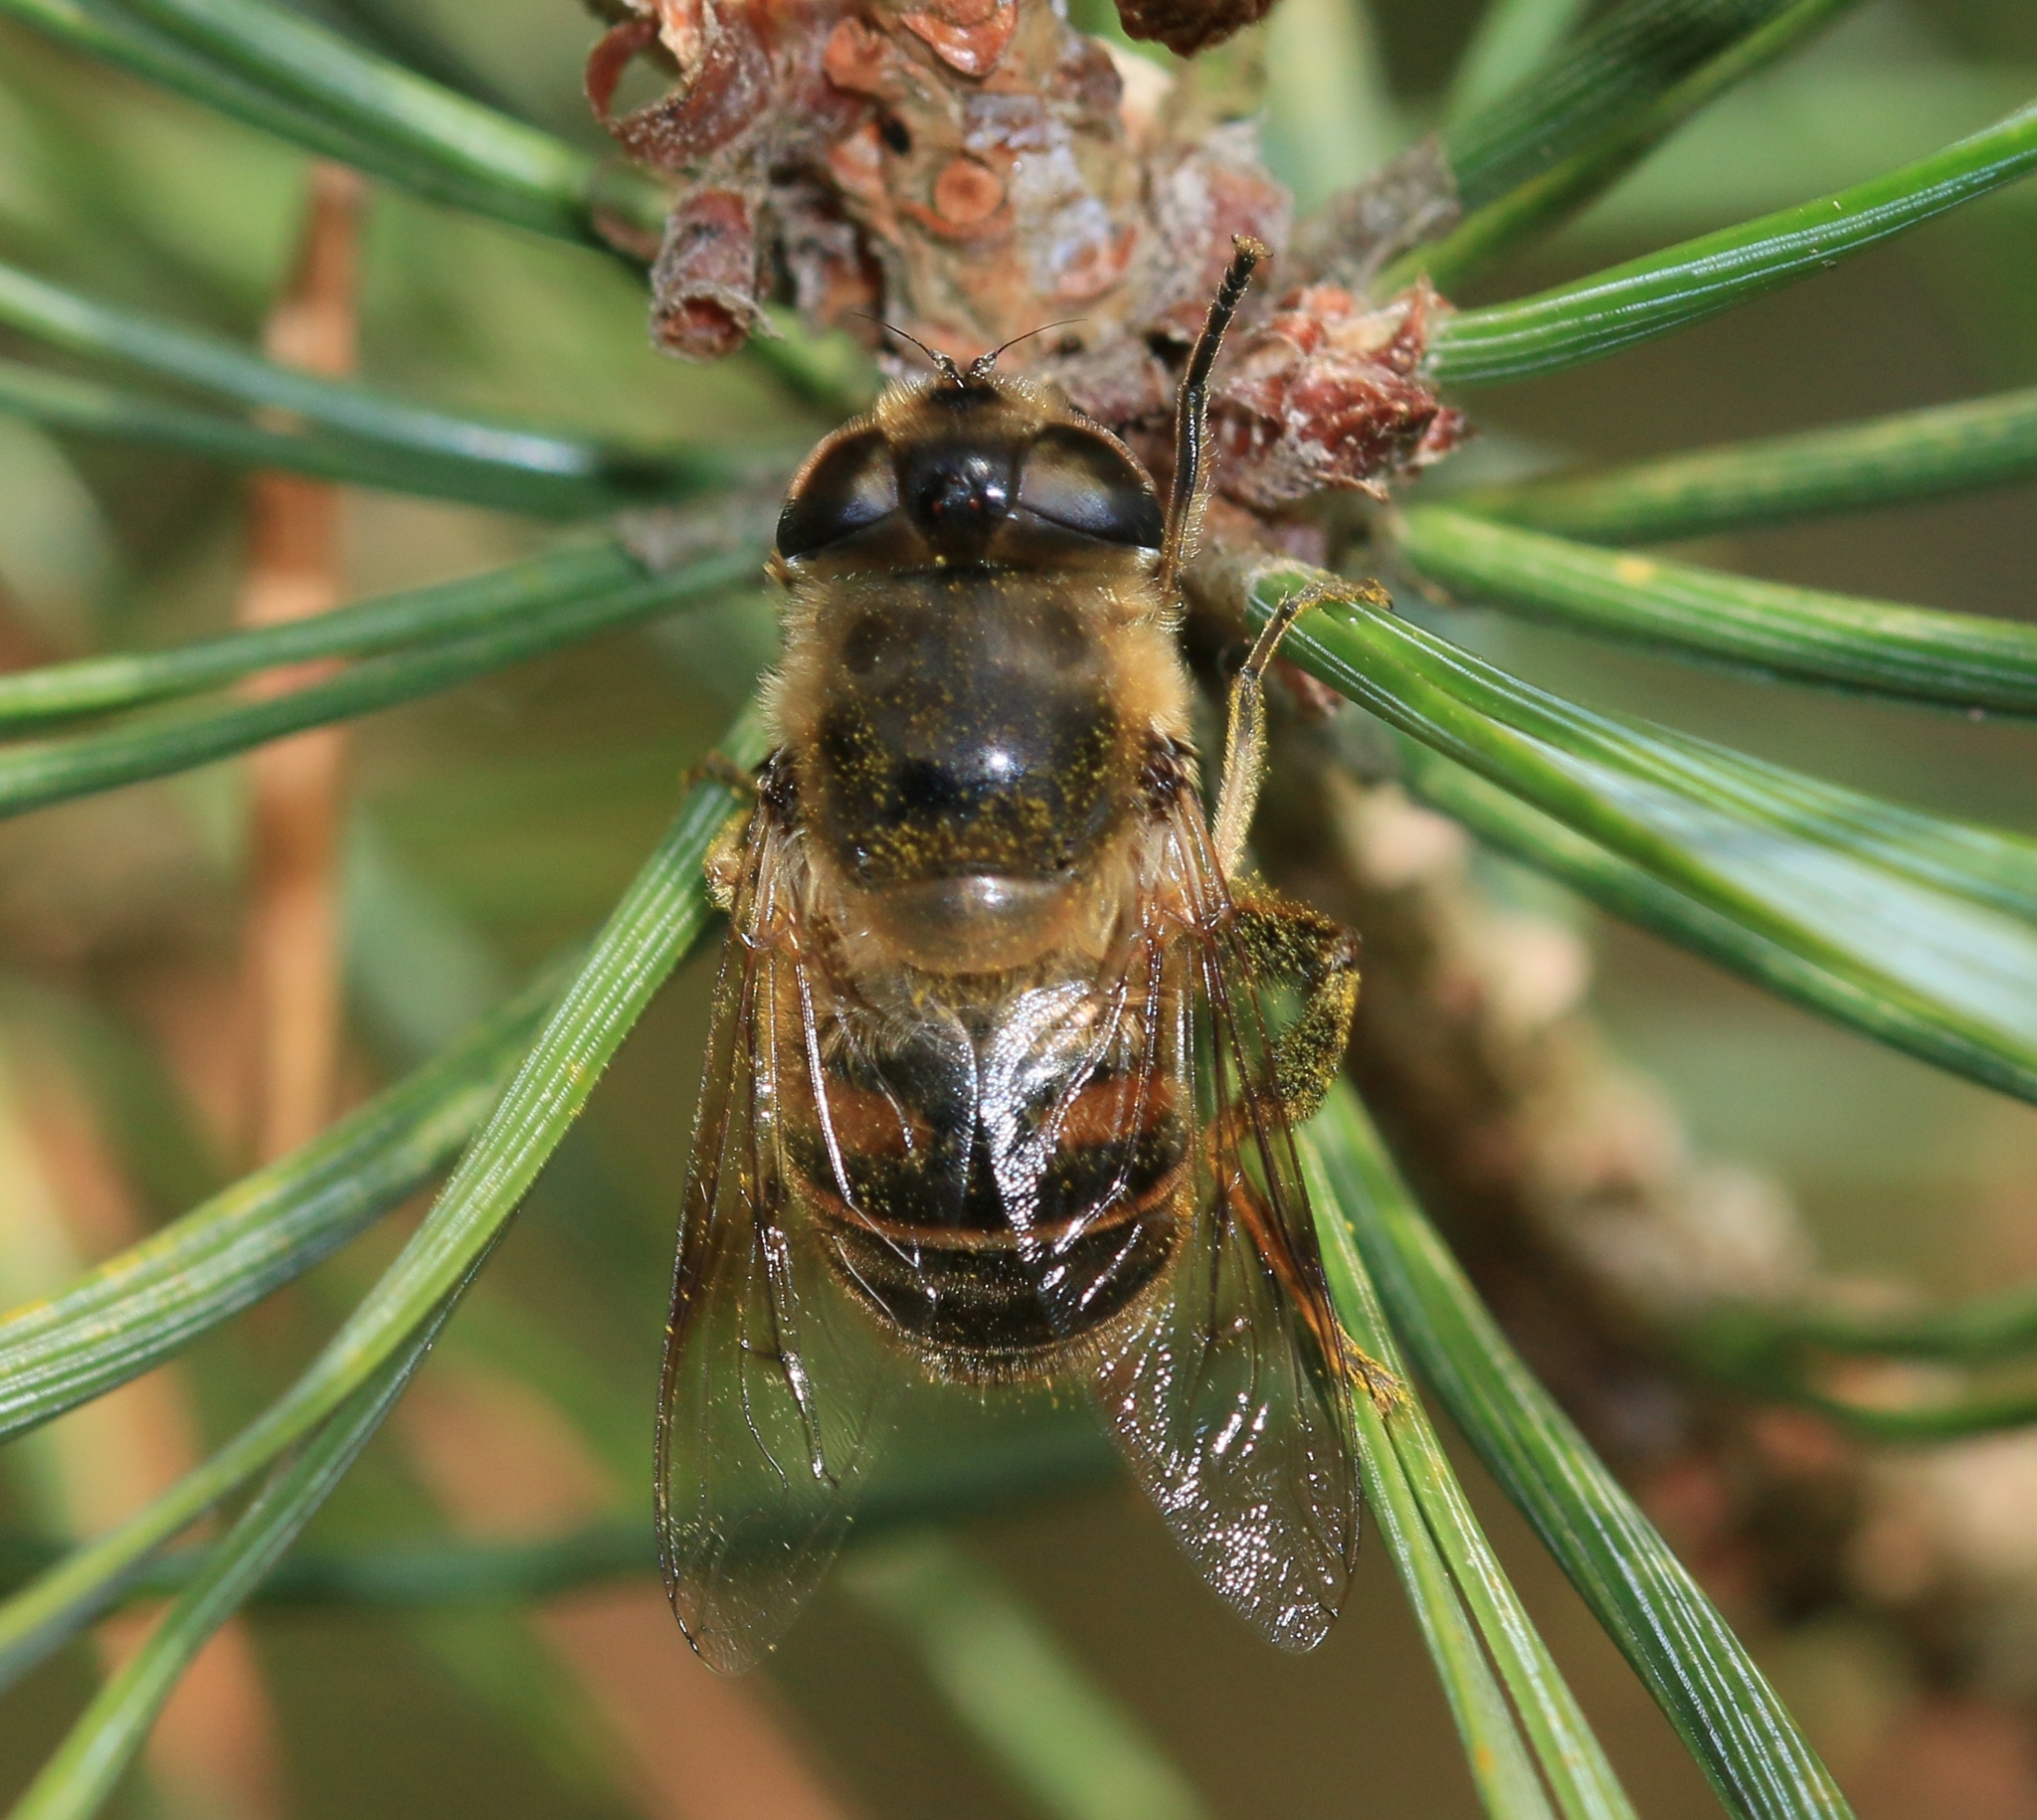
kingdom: Animalia
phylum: Arthropoda
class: Insecta
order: Diptera
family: Syrphidae
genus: Eristalis
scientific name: Eristalis tenax
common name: Drone fly
